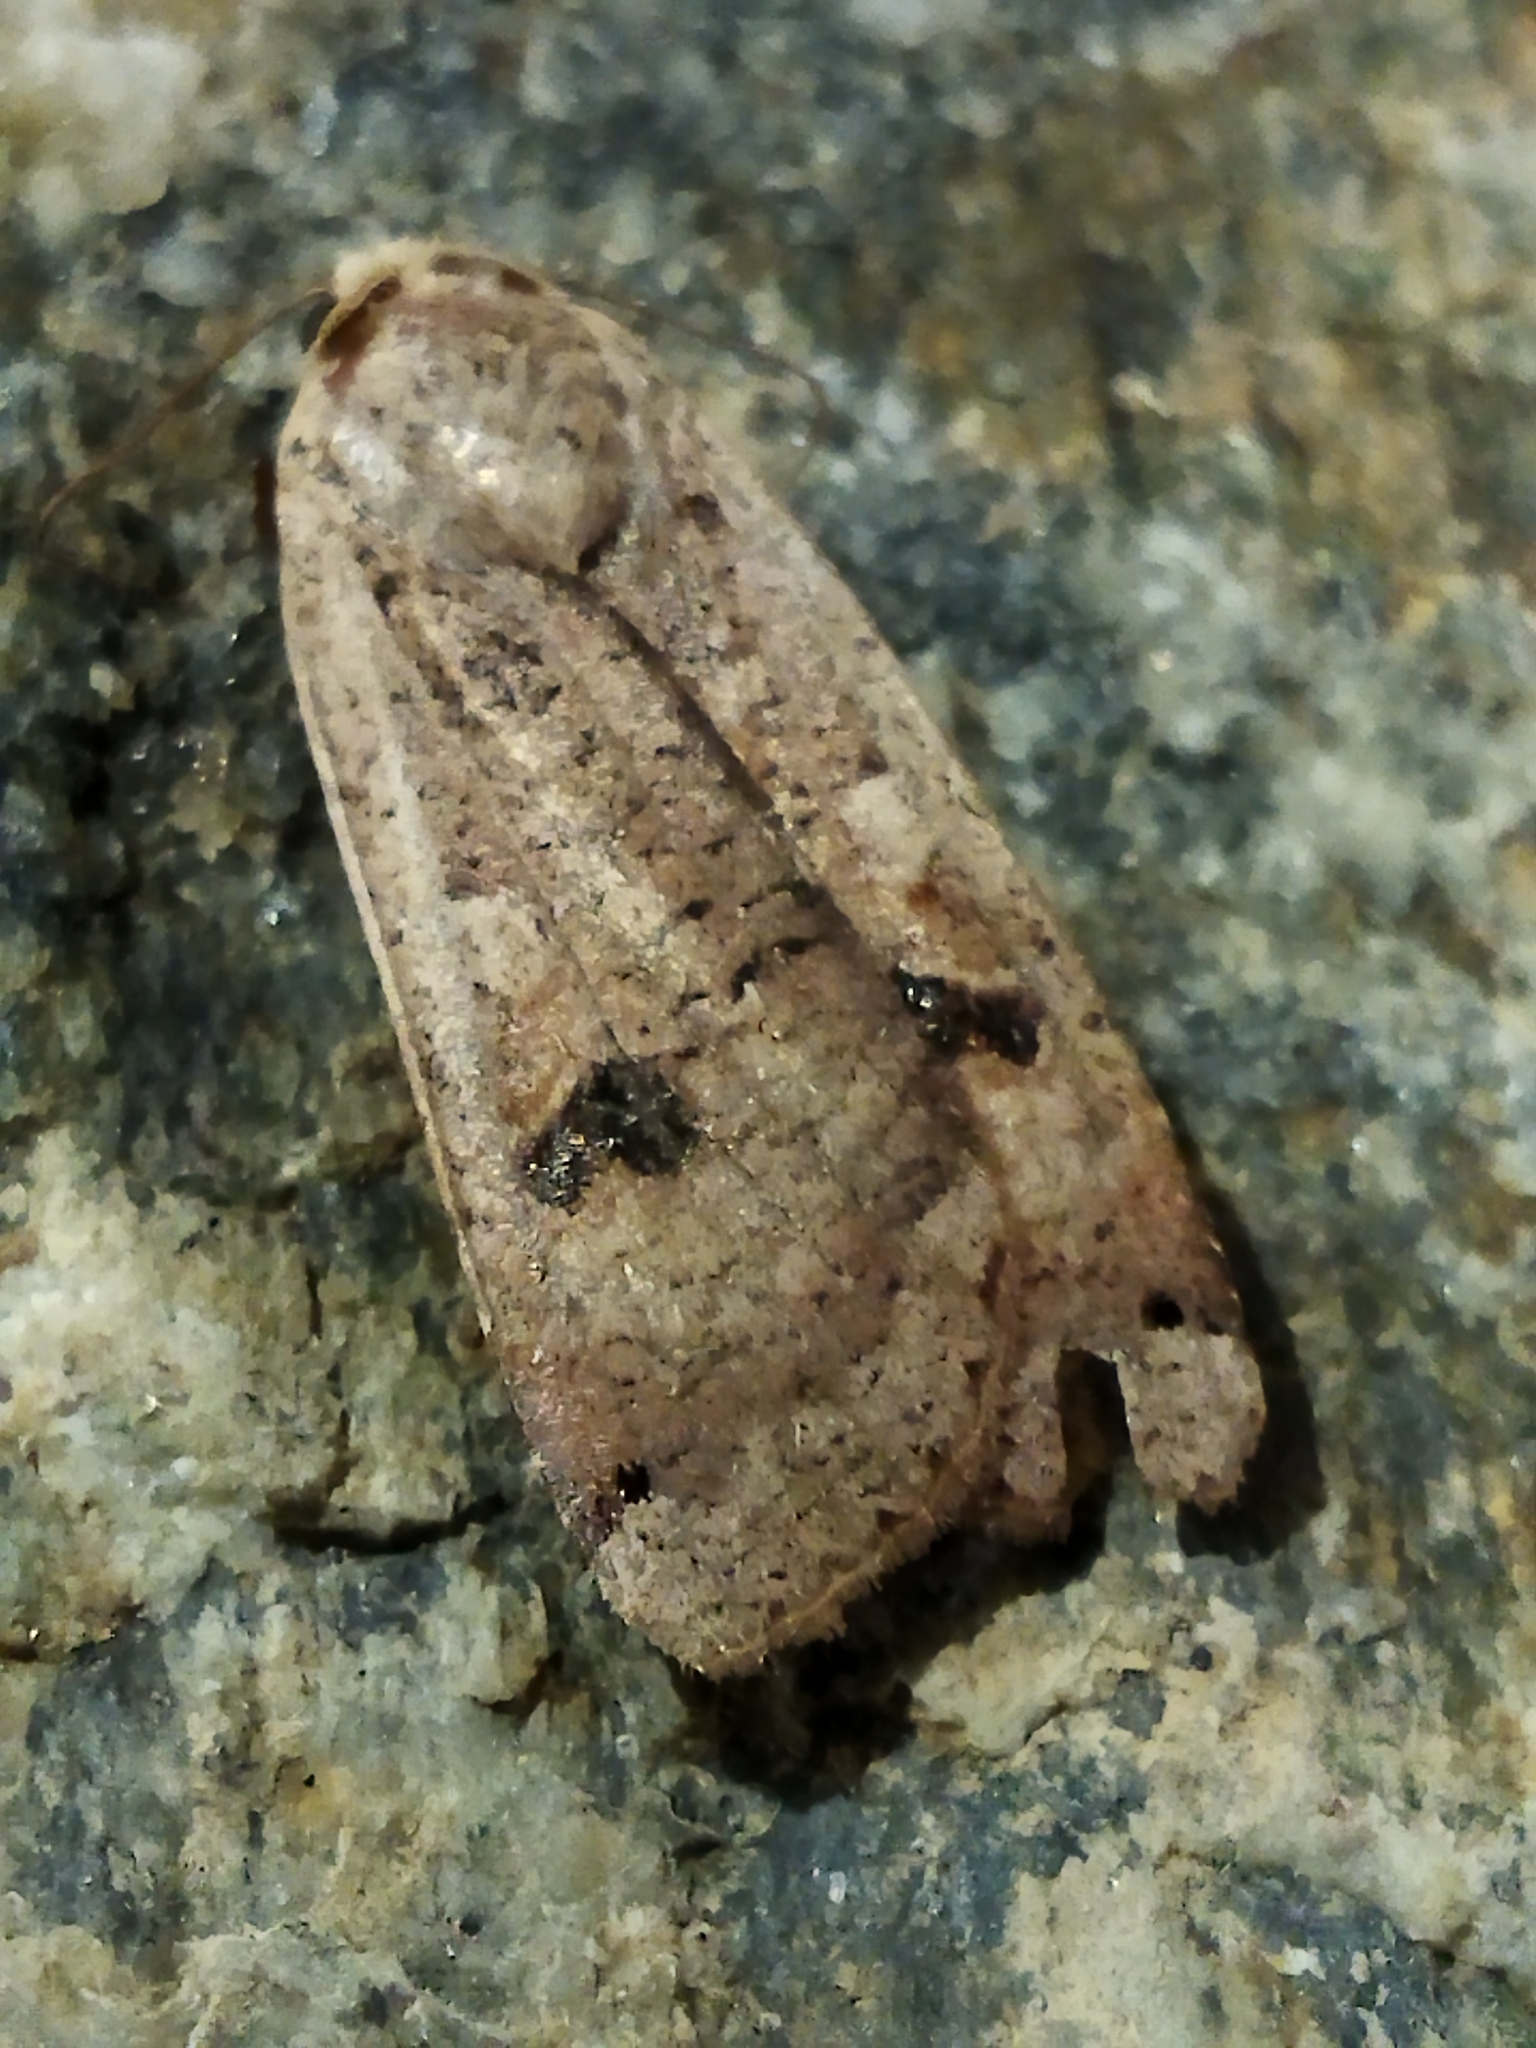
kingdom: Animalia
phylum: Arthropoda
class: Insecta
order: Lepidoptera
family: Noctuidae
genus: Noctua
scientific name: Noctua pronuba
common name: Large yellow underwing
